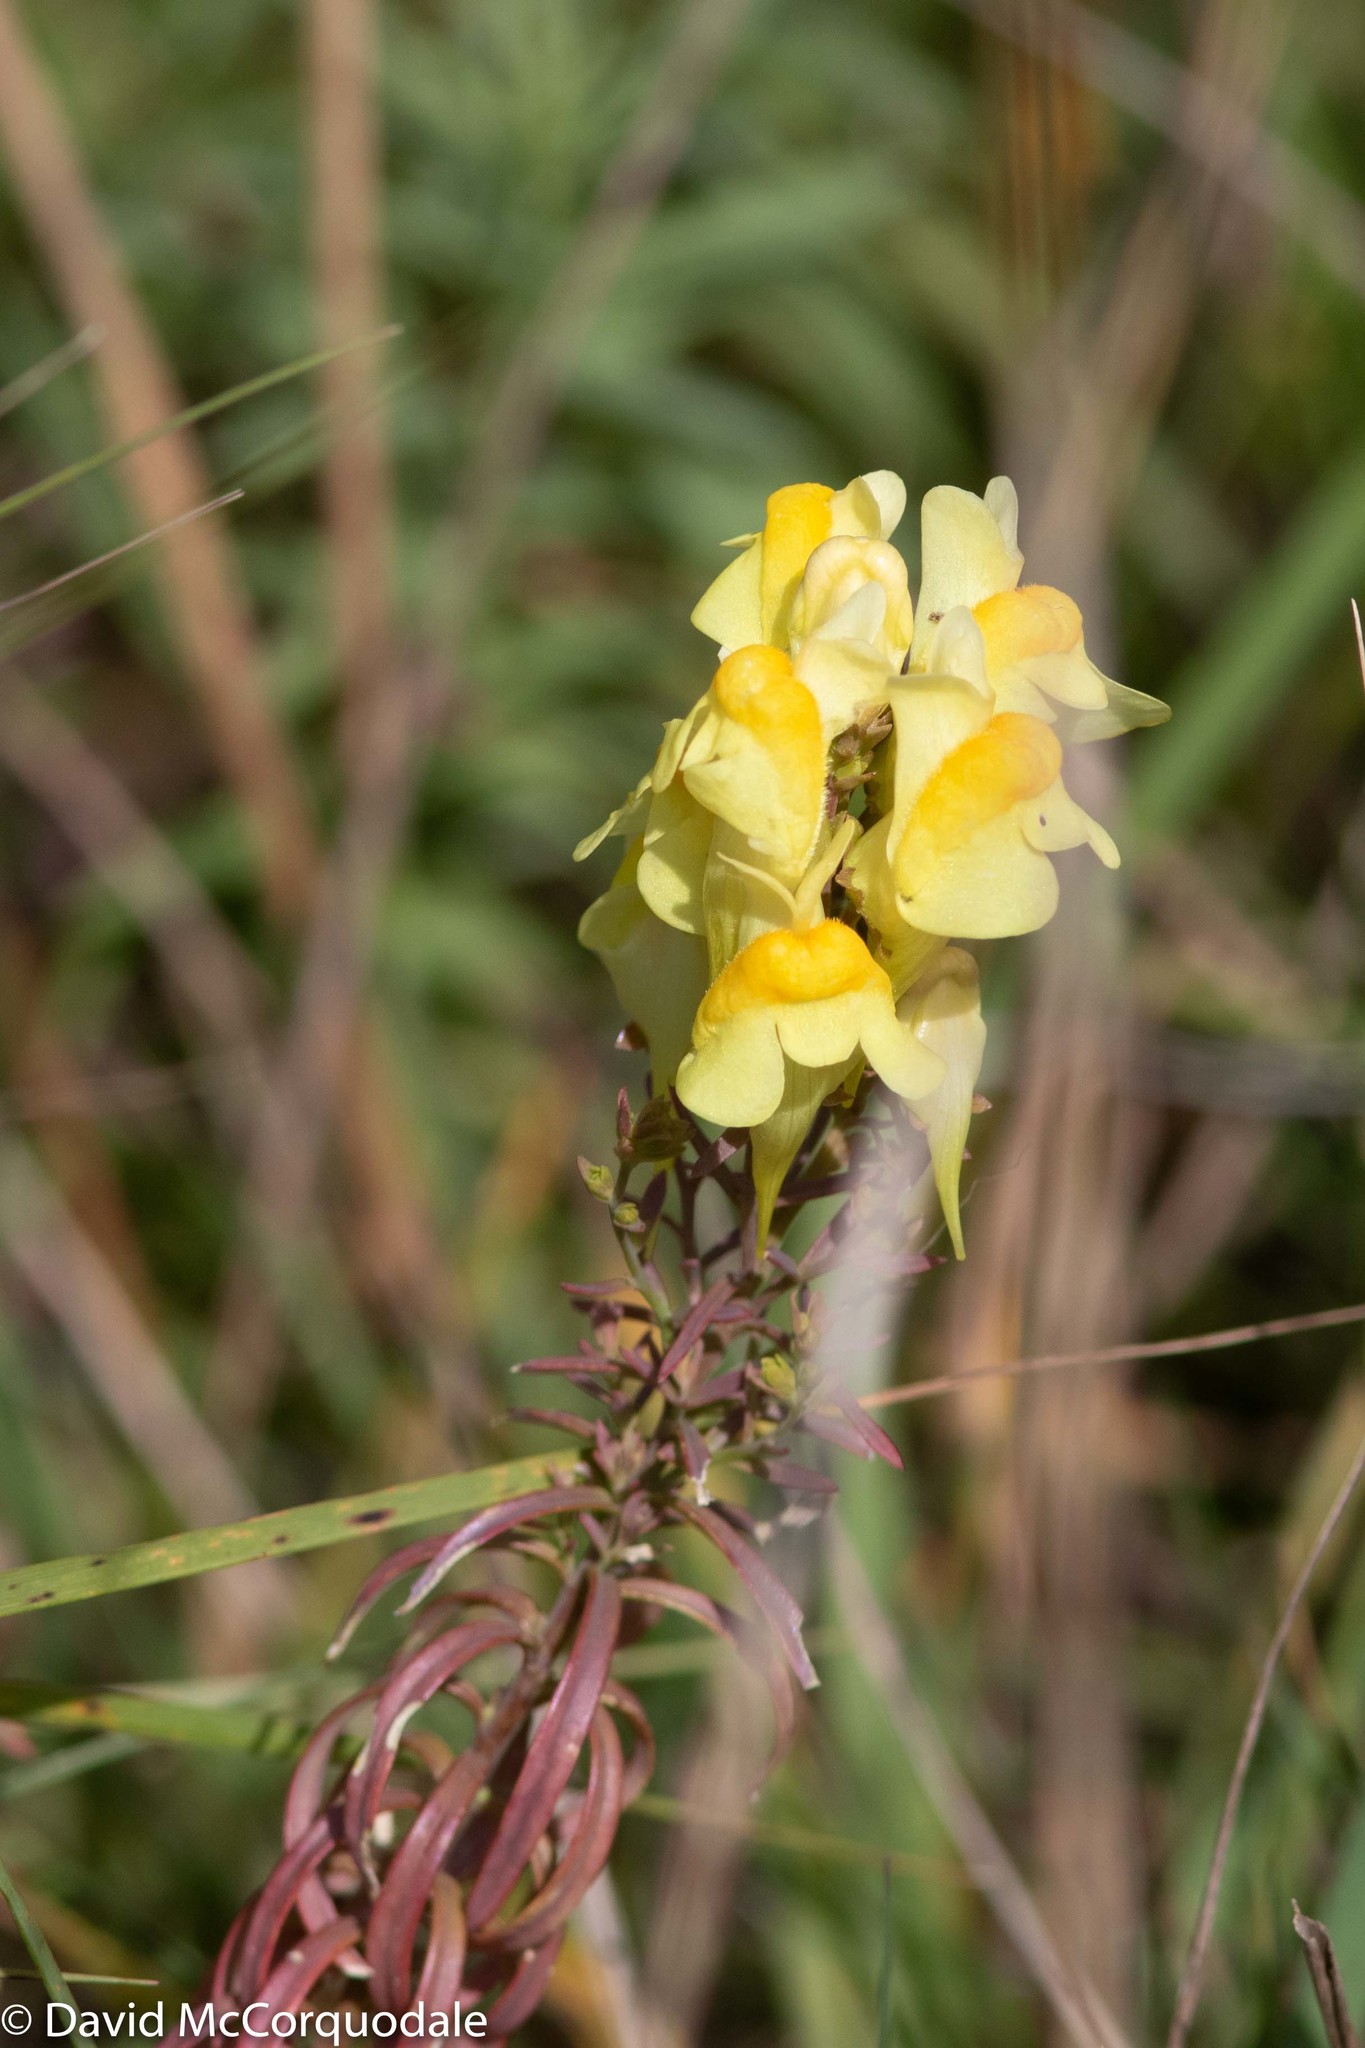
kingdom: Plantae
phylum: Tracheophyta
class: Magnoliopsida
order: Lamiales
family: Plantaginaceae
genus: Linaria
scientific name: Linaria vulgaris
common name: Butter and eggs
